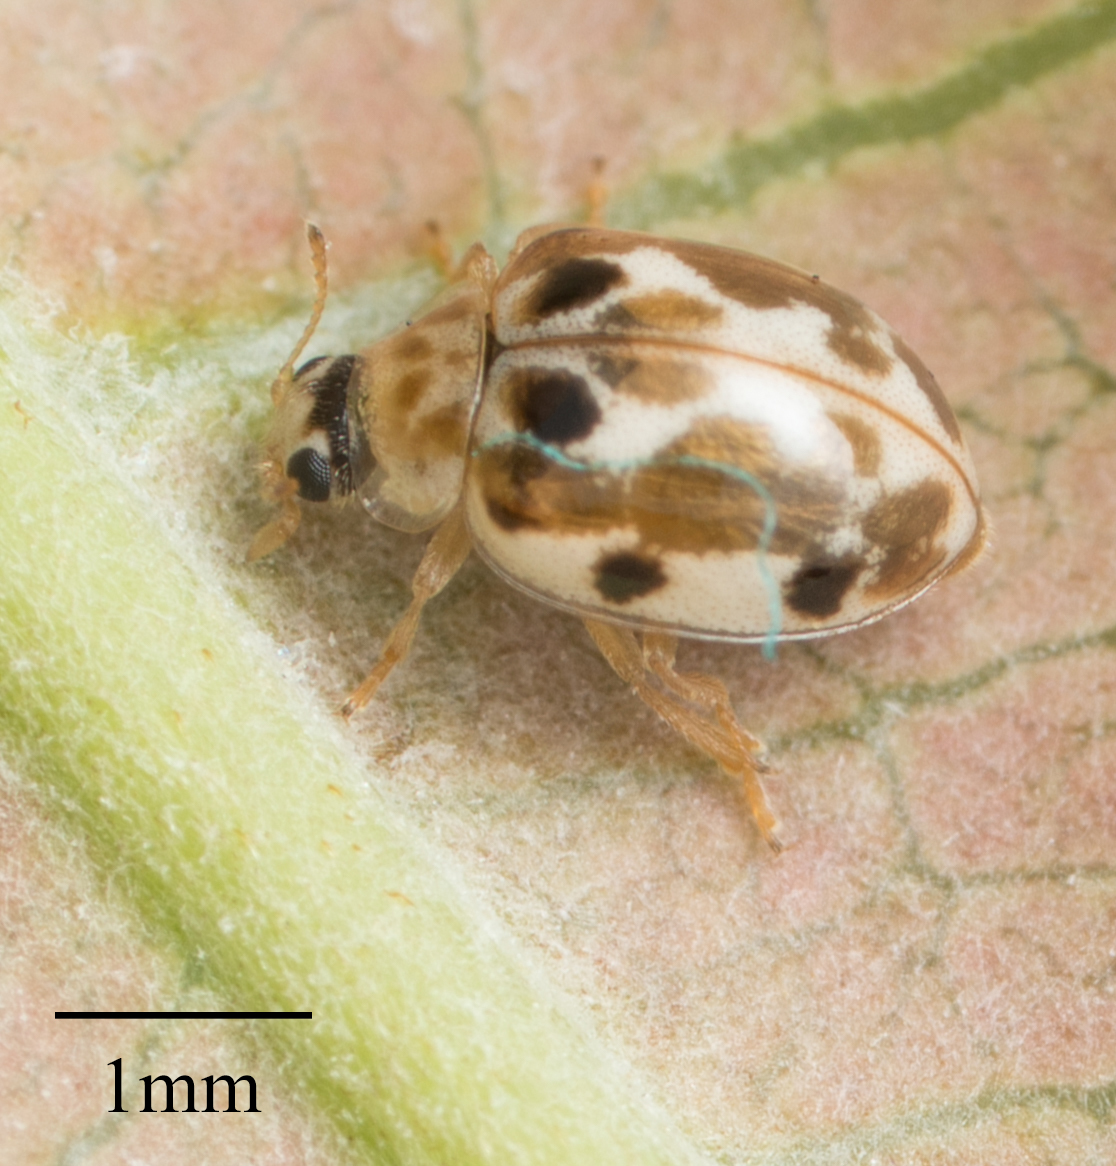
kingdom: Animalia
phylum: Arthropoda
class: Insecta
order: Coleoptera
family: Coccinellidae
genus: Psyllobora
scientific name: Psyllobora vigintimaculata
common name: Ladybird beetle
